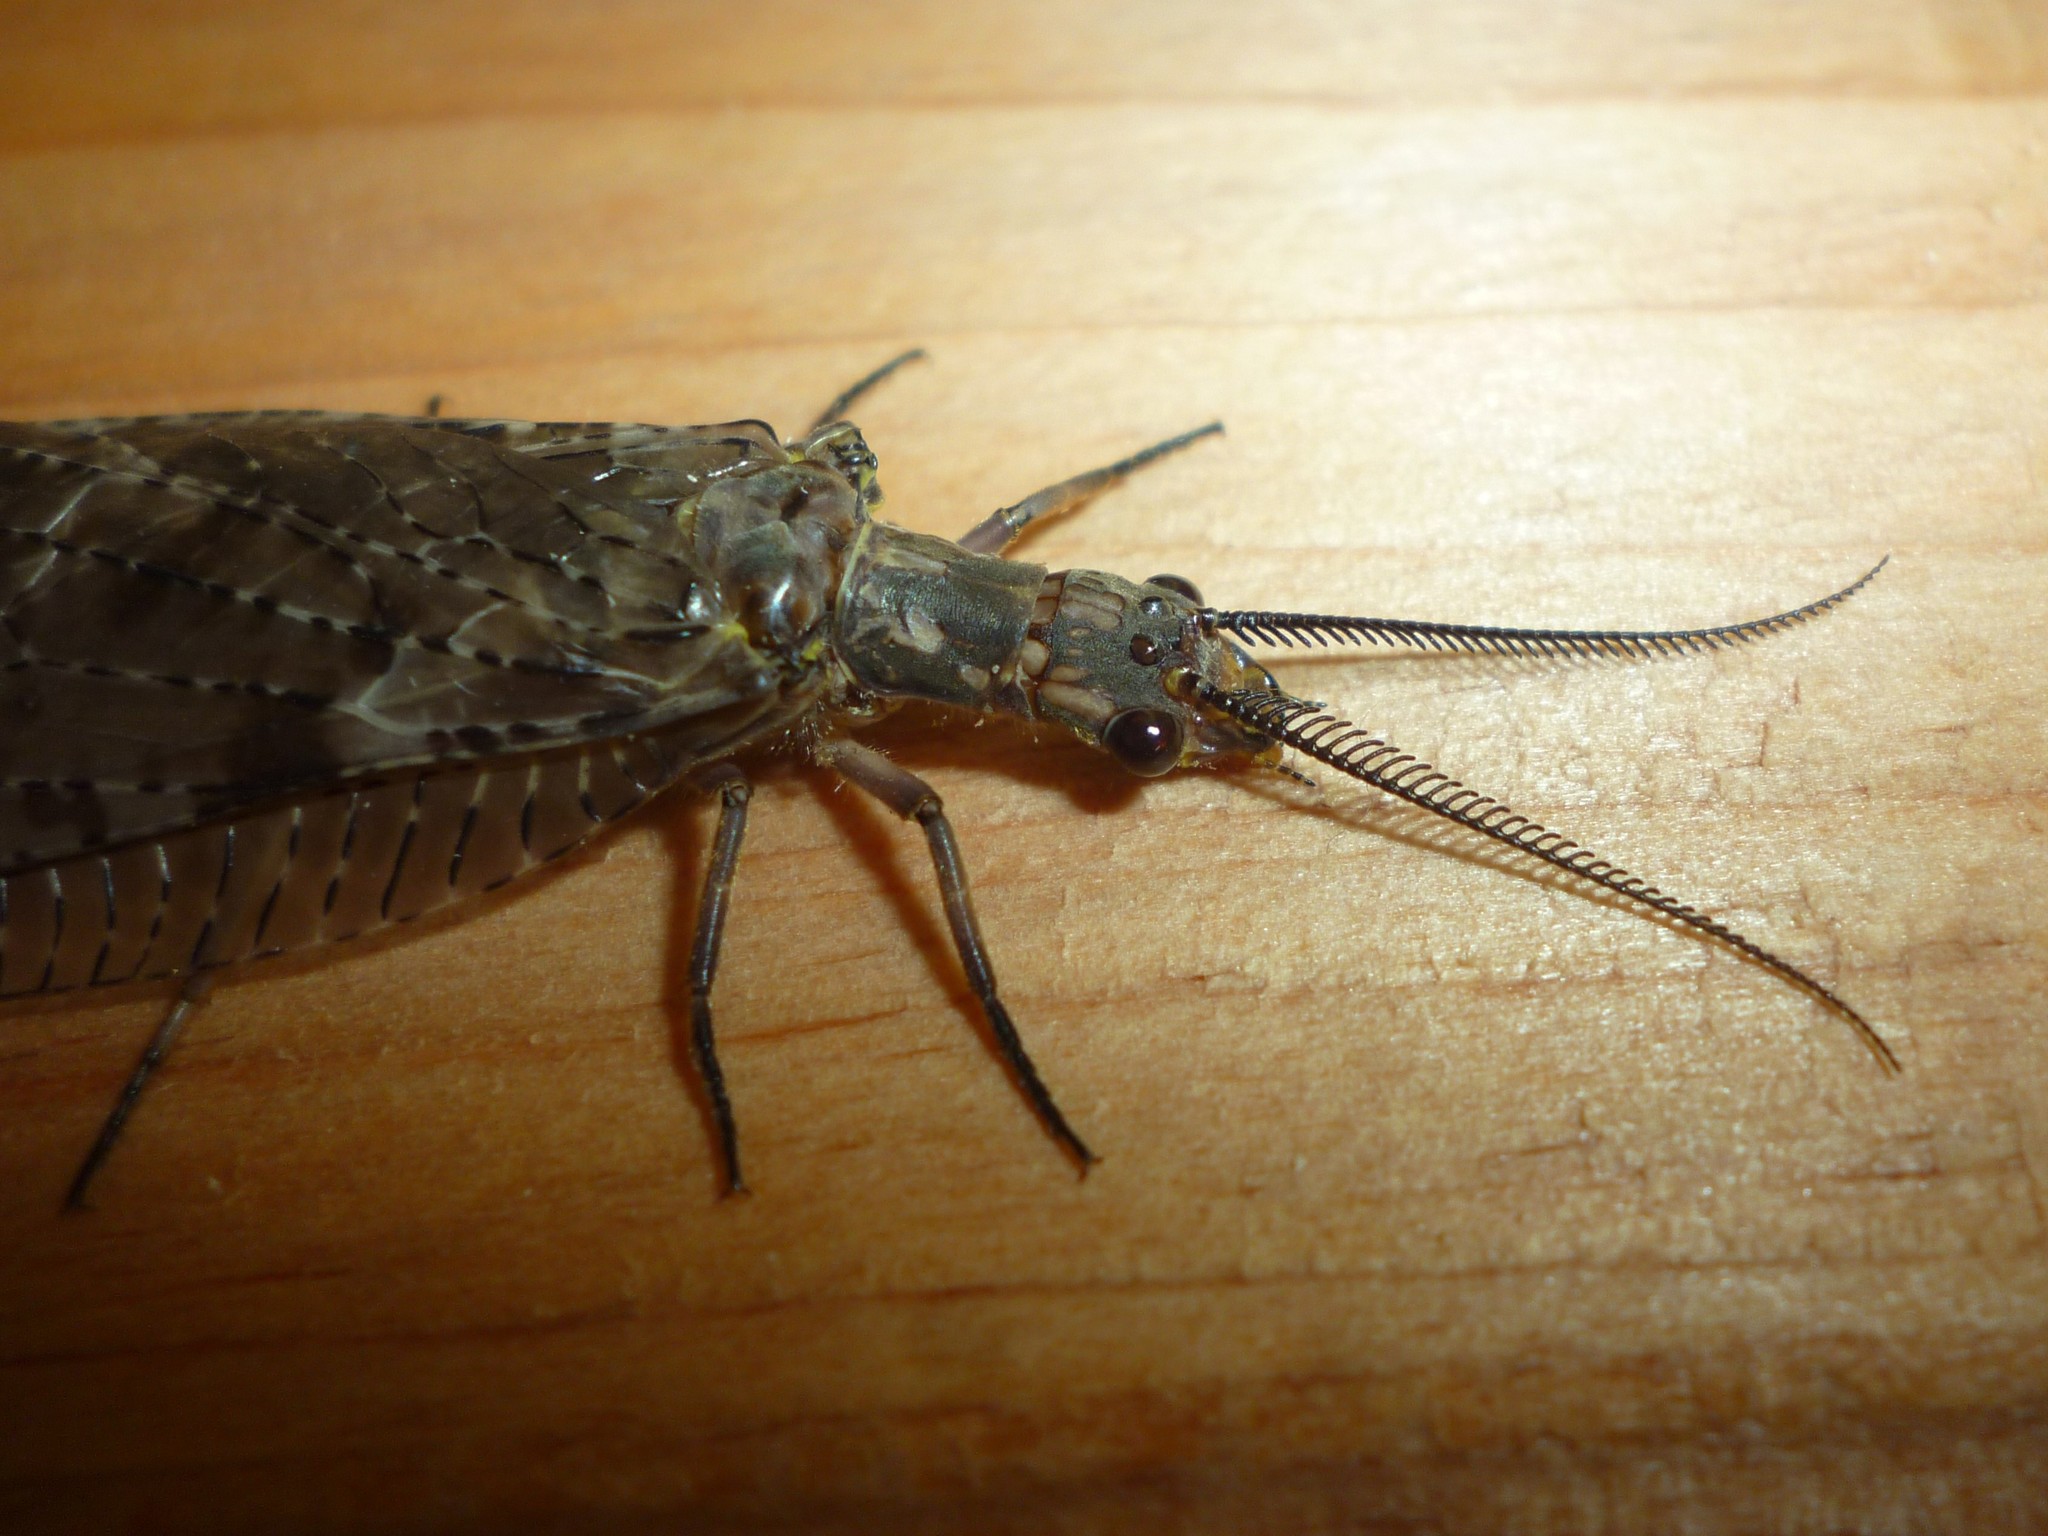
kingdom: Animalia
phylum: Arthropoda
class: Insecta
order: Megaloptera
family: Corydalidae
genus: Chauliodes
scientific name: Chauliodes pectinicornis
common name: Summer fishfly
